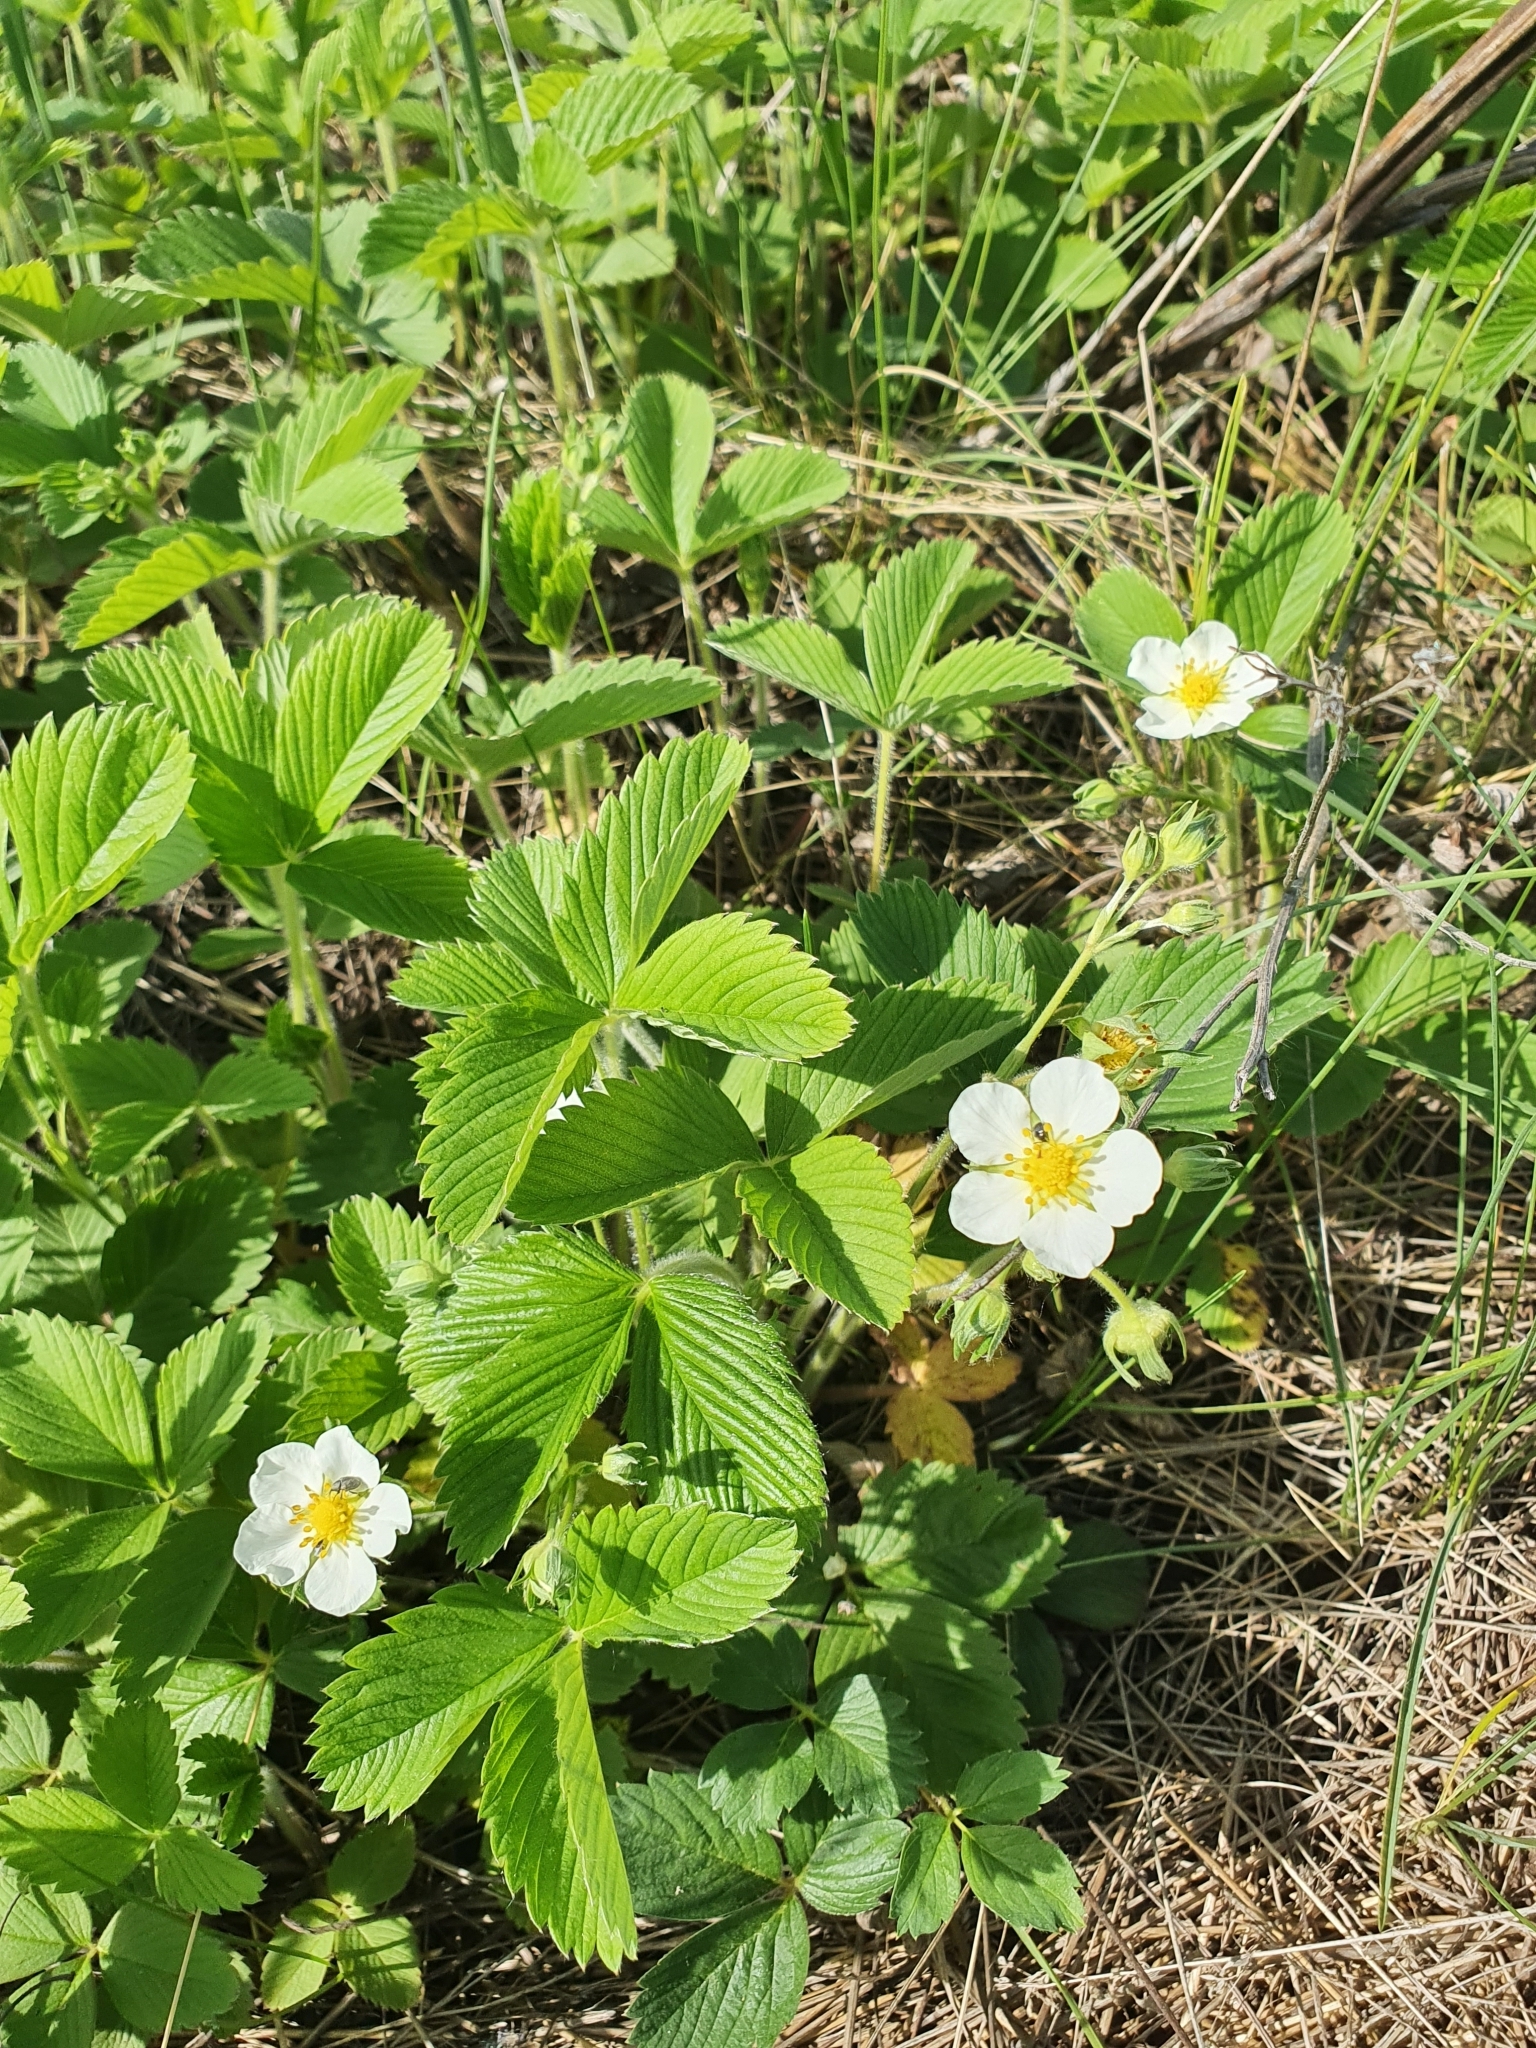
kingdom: Plantae
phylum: Tracheophyta
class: Magnoliopsida
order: Rosales
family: Rosaceae
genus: Fragaria
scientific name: Fragaria viridis
